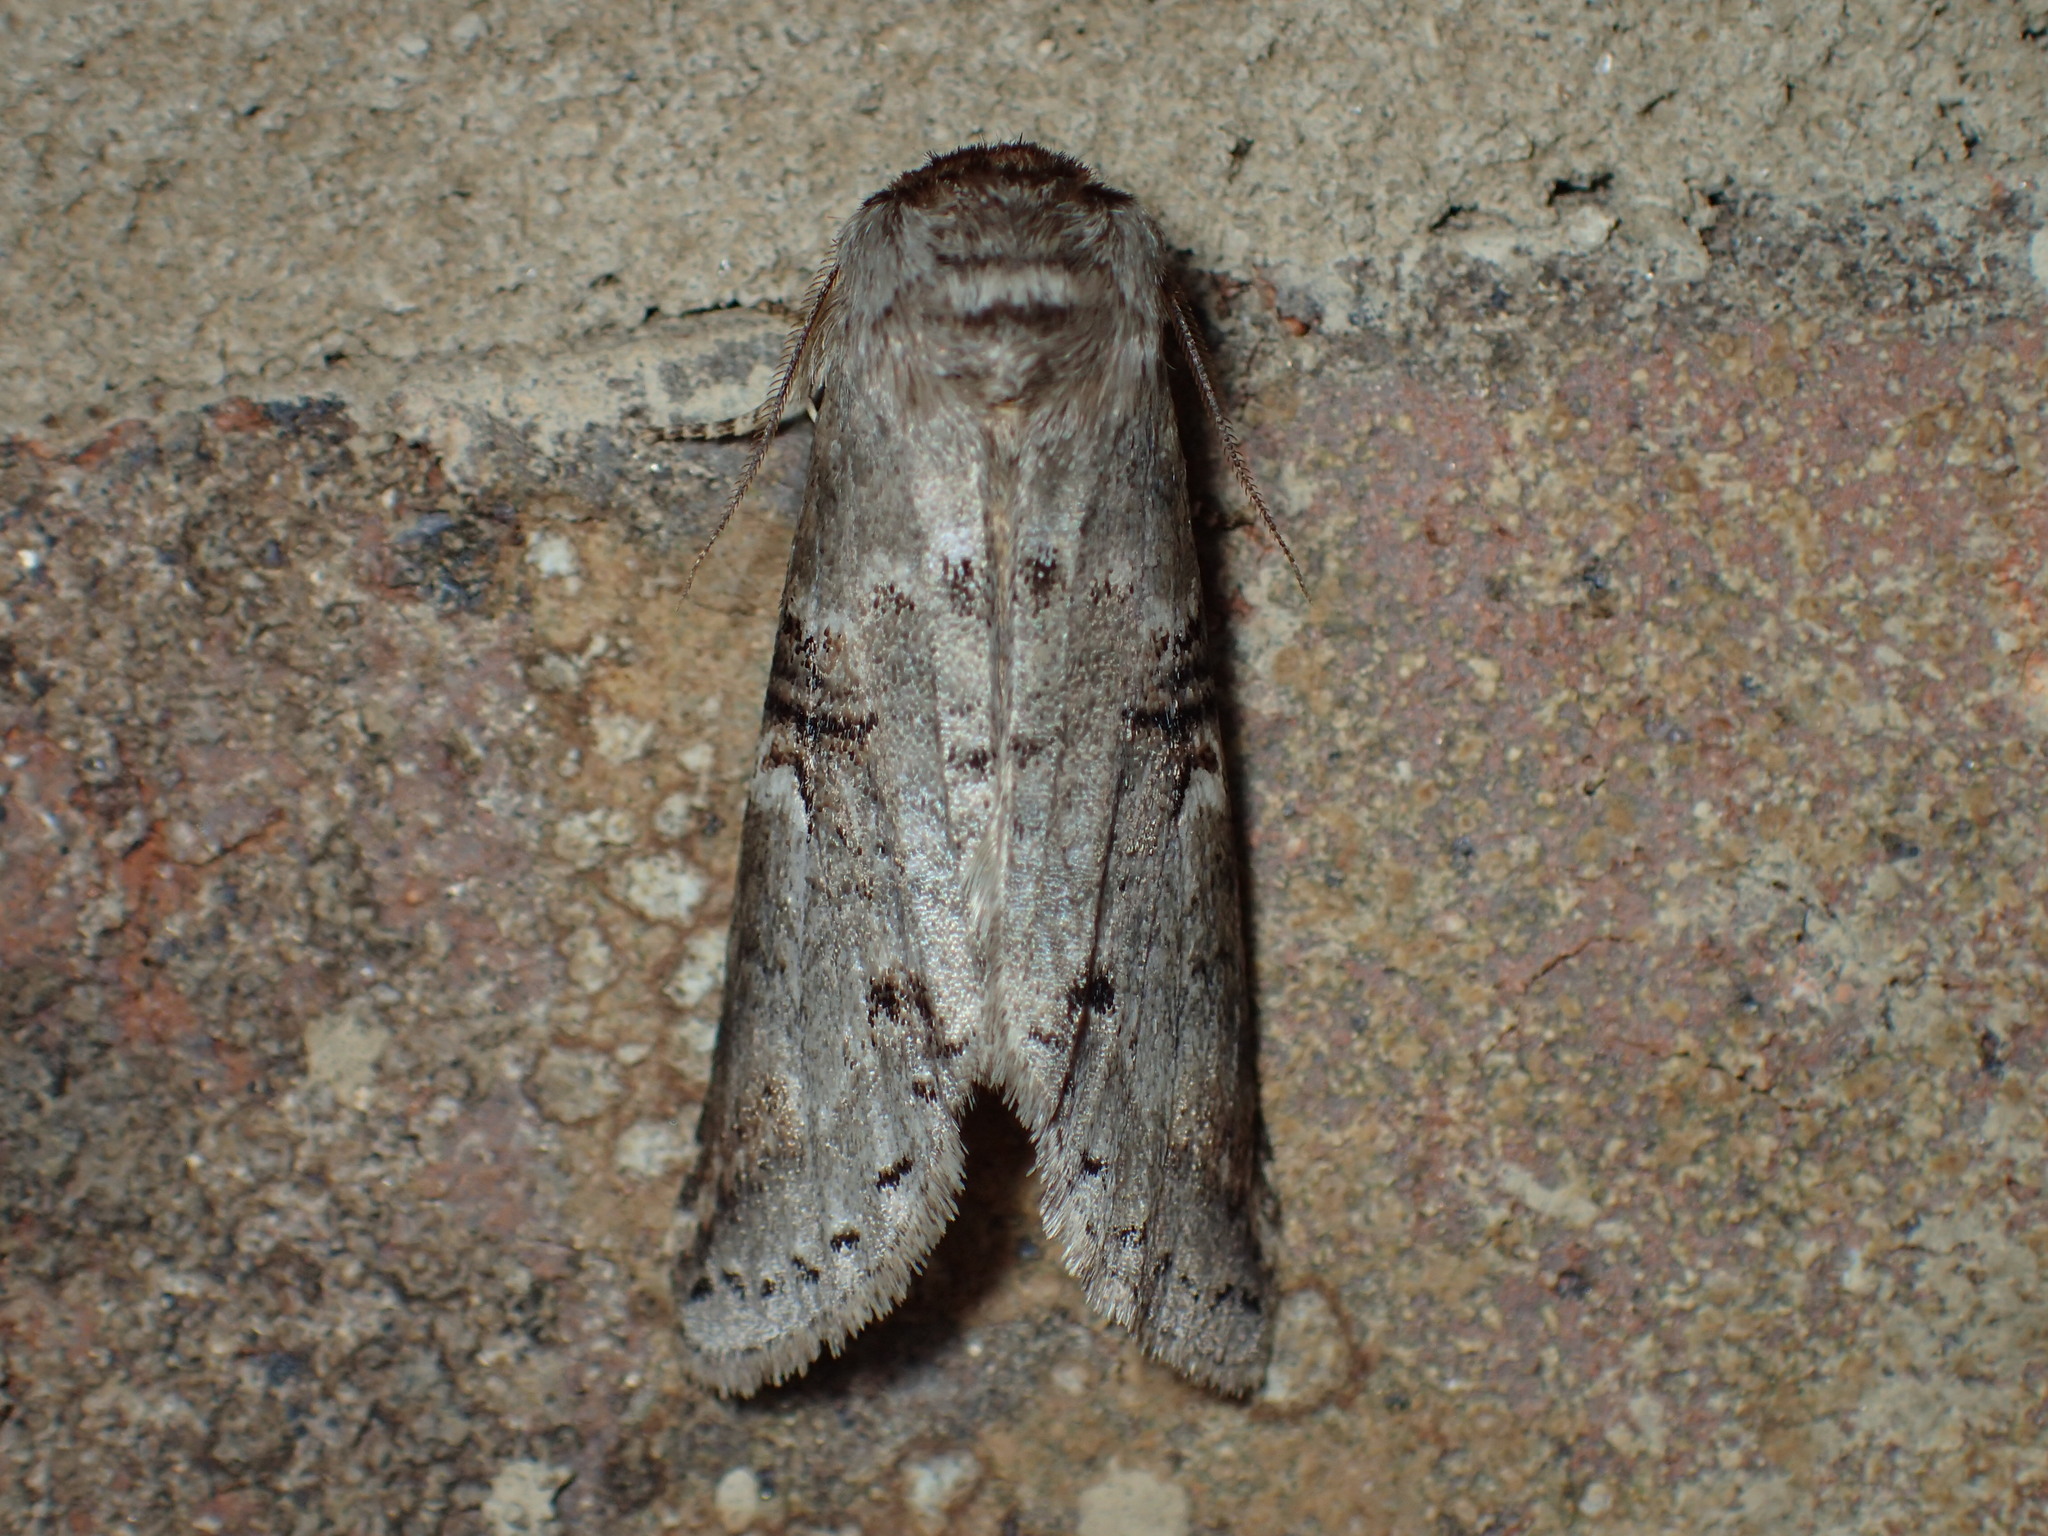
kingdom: Animalia
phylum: Arthropoda
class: Insecta
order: Lepidoptera
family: Notodontidae
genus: Ellida
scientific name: Ellida caniplaga
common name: Linden prominent
